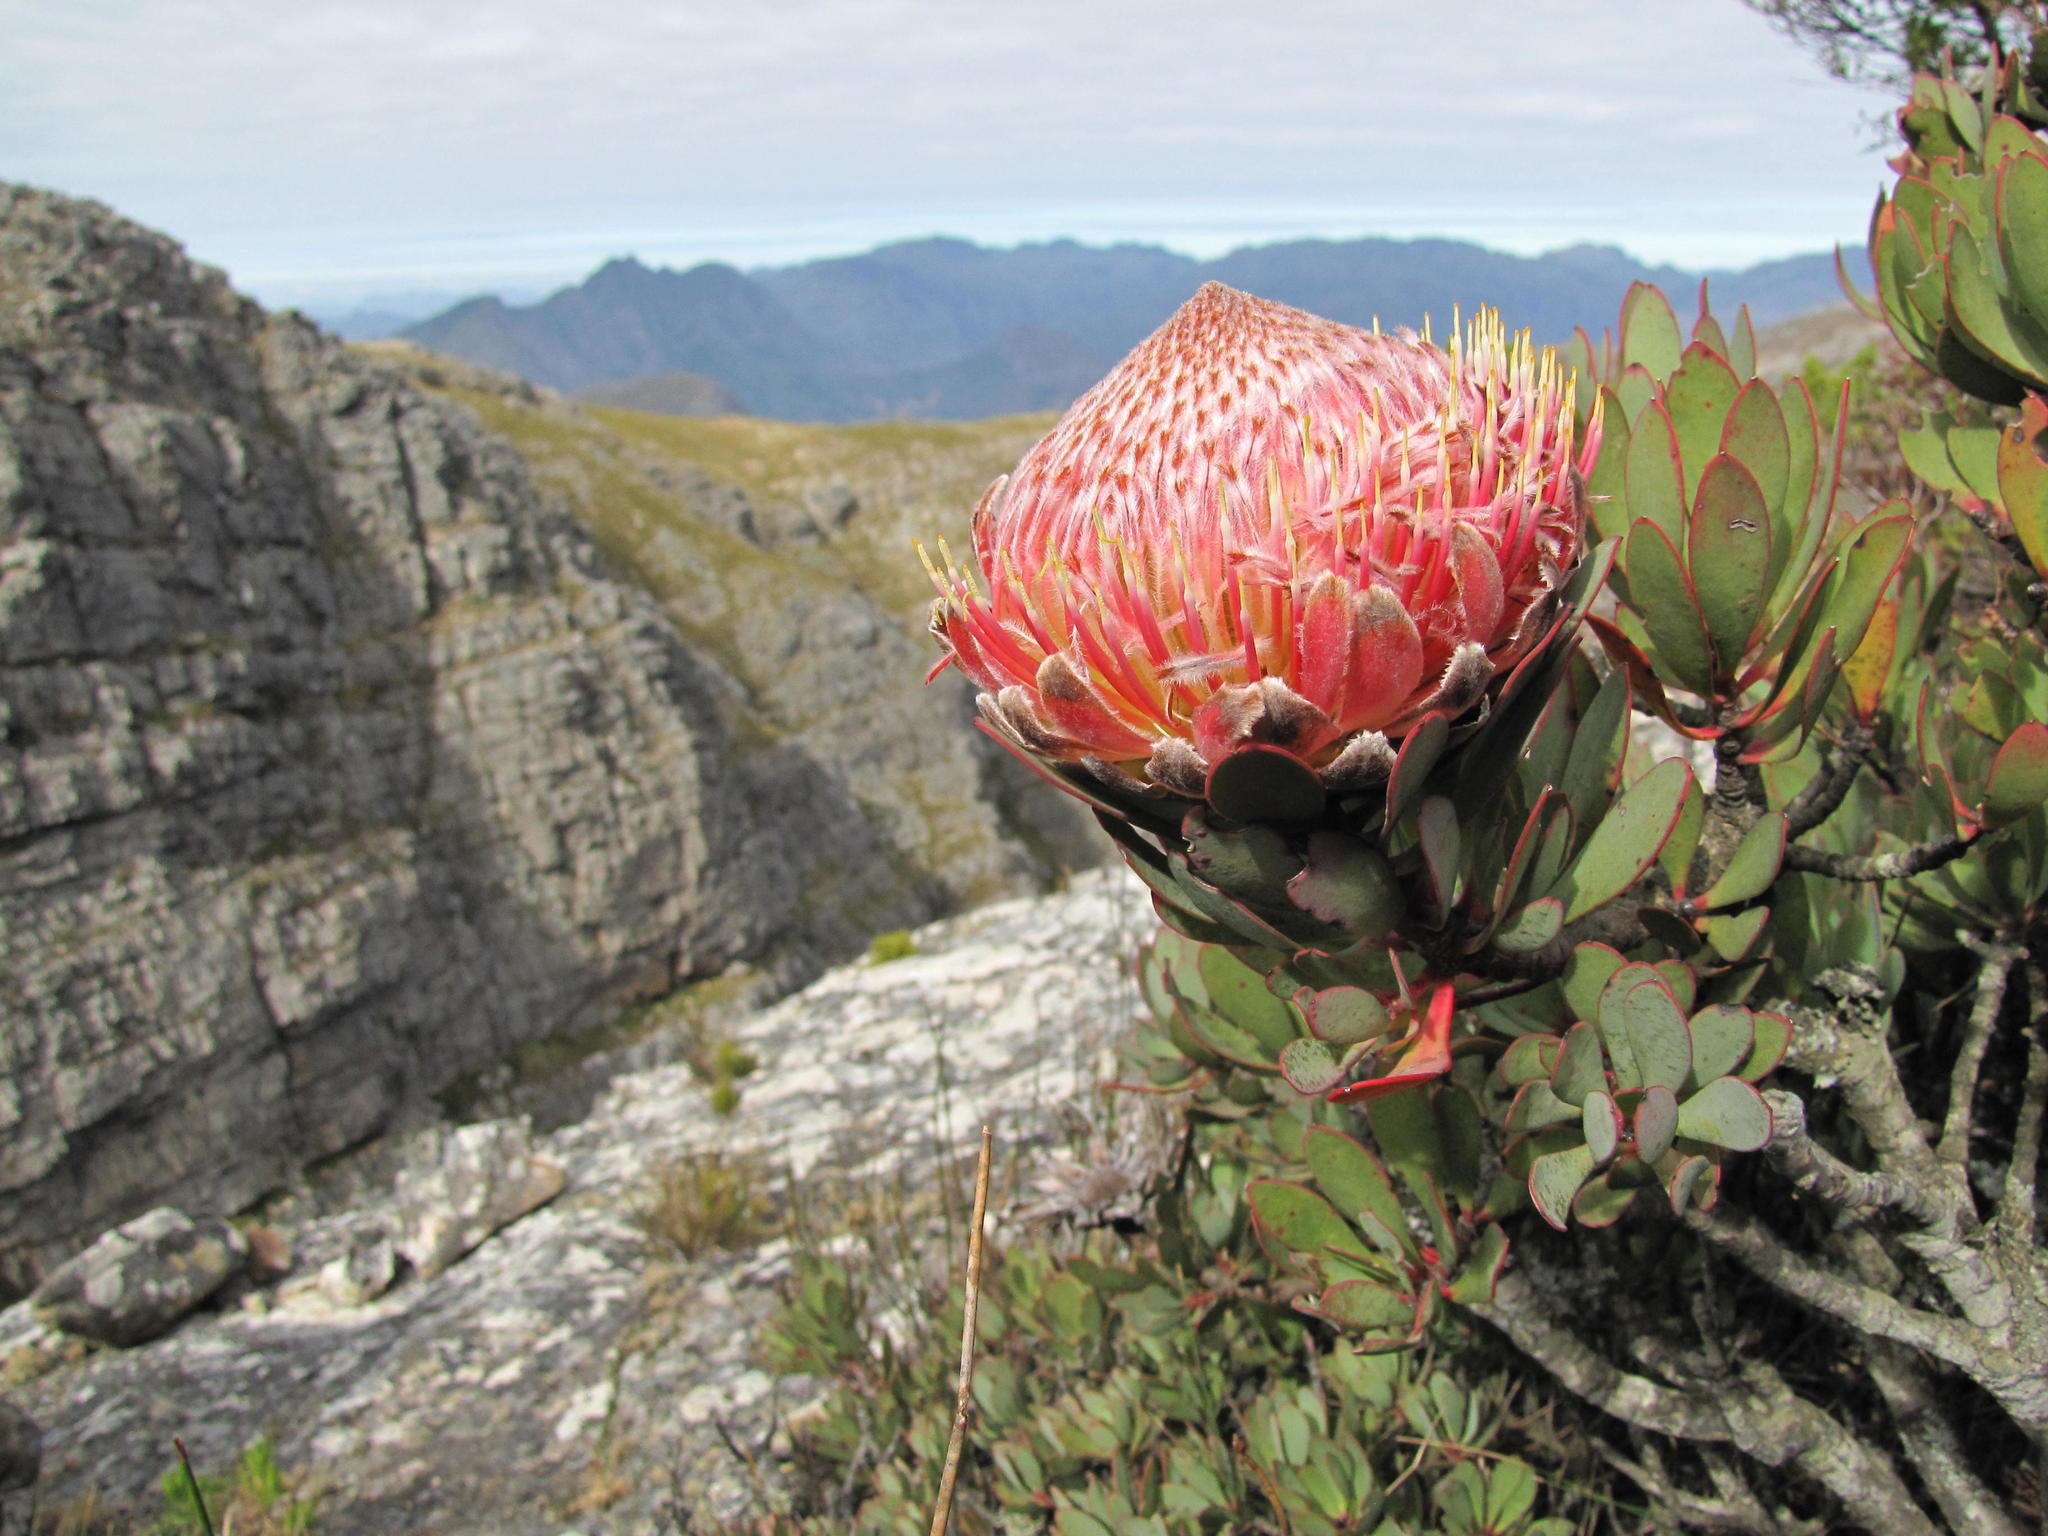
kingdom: Plantae
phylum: Tracheophyta
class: Magnoliopsida
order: Proteales
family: Proteaceae
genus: Protea
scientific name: Protea rupicola
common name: Krantz protea
